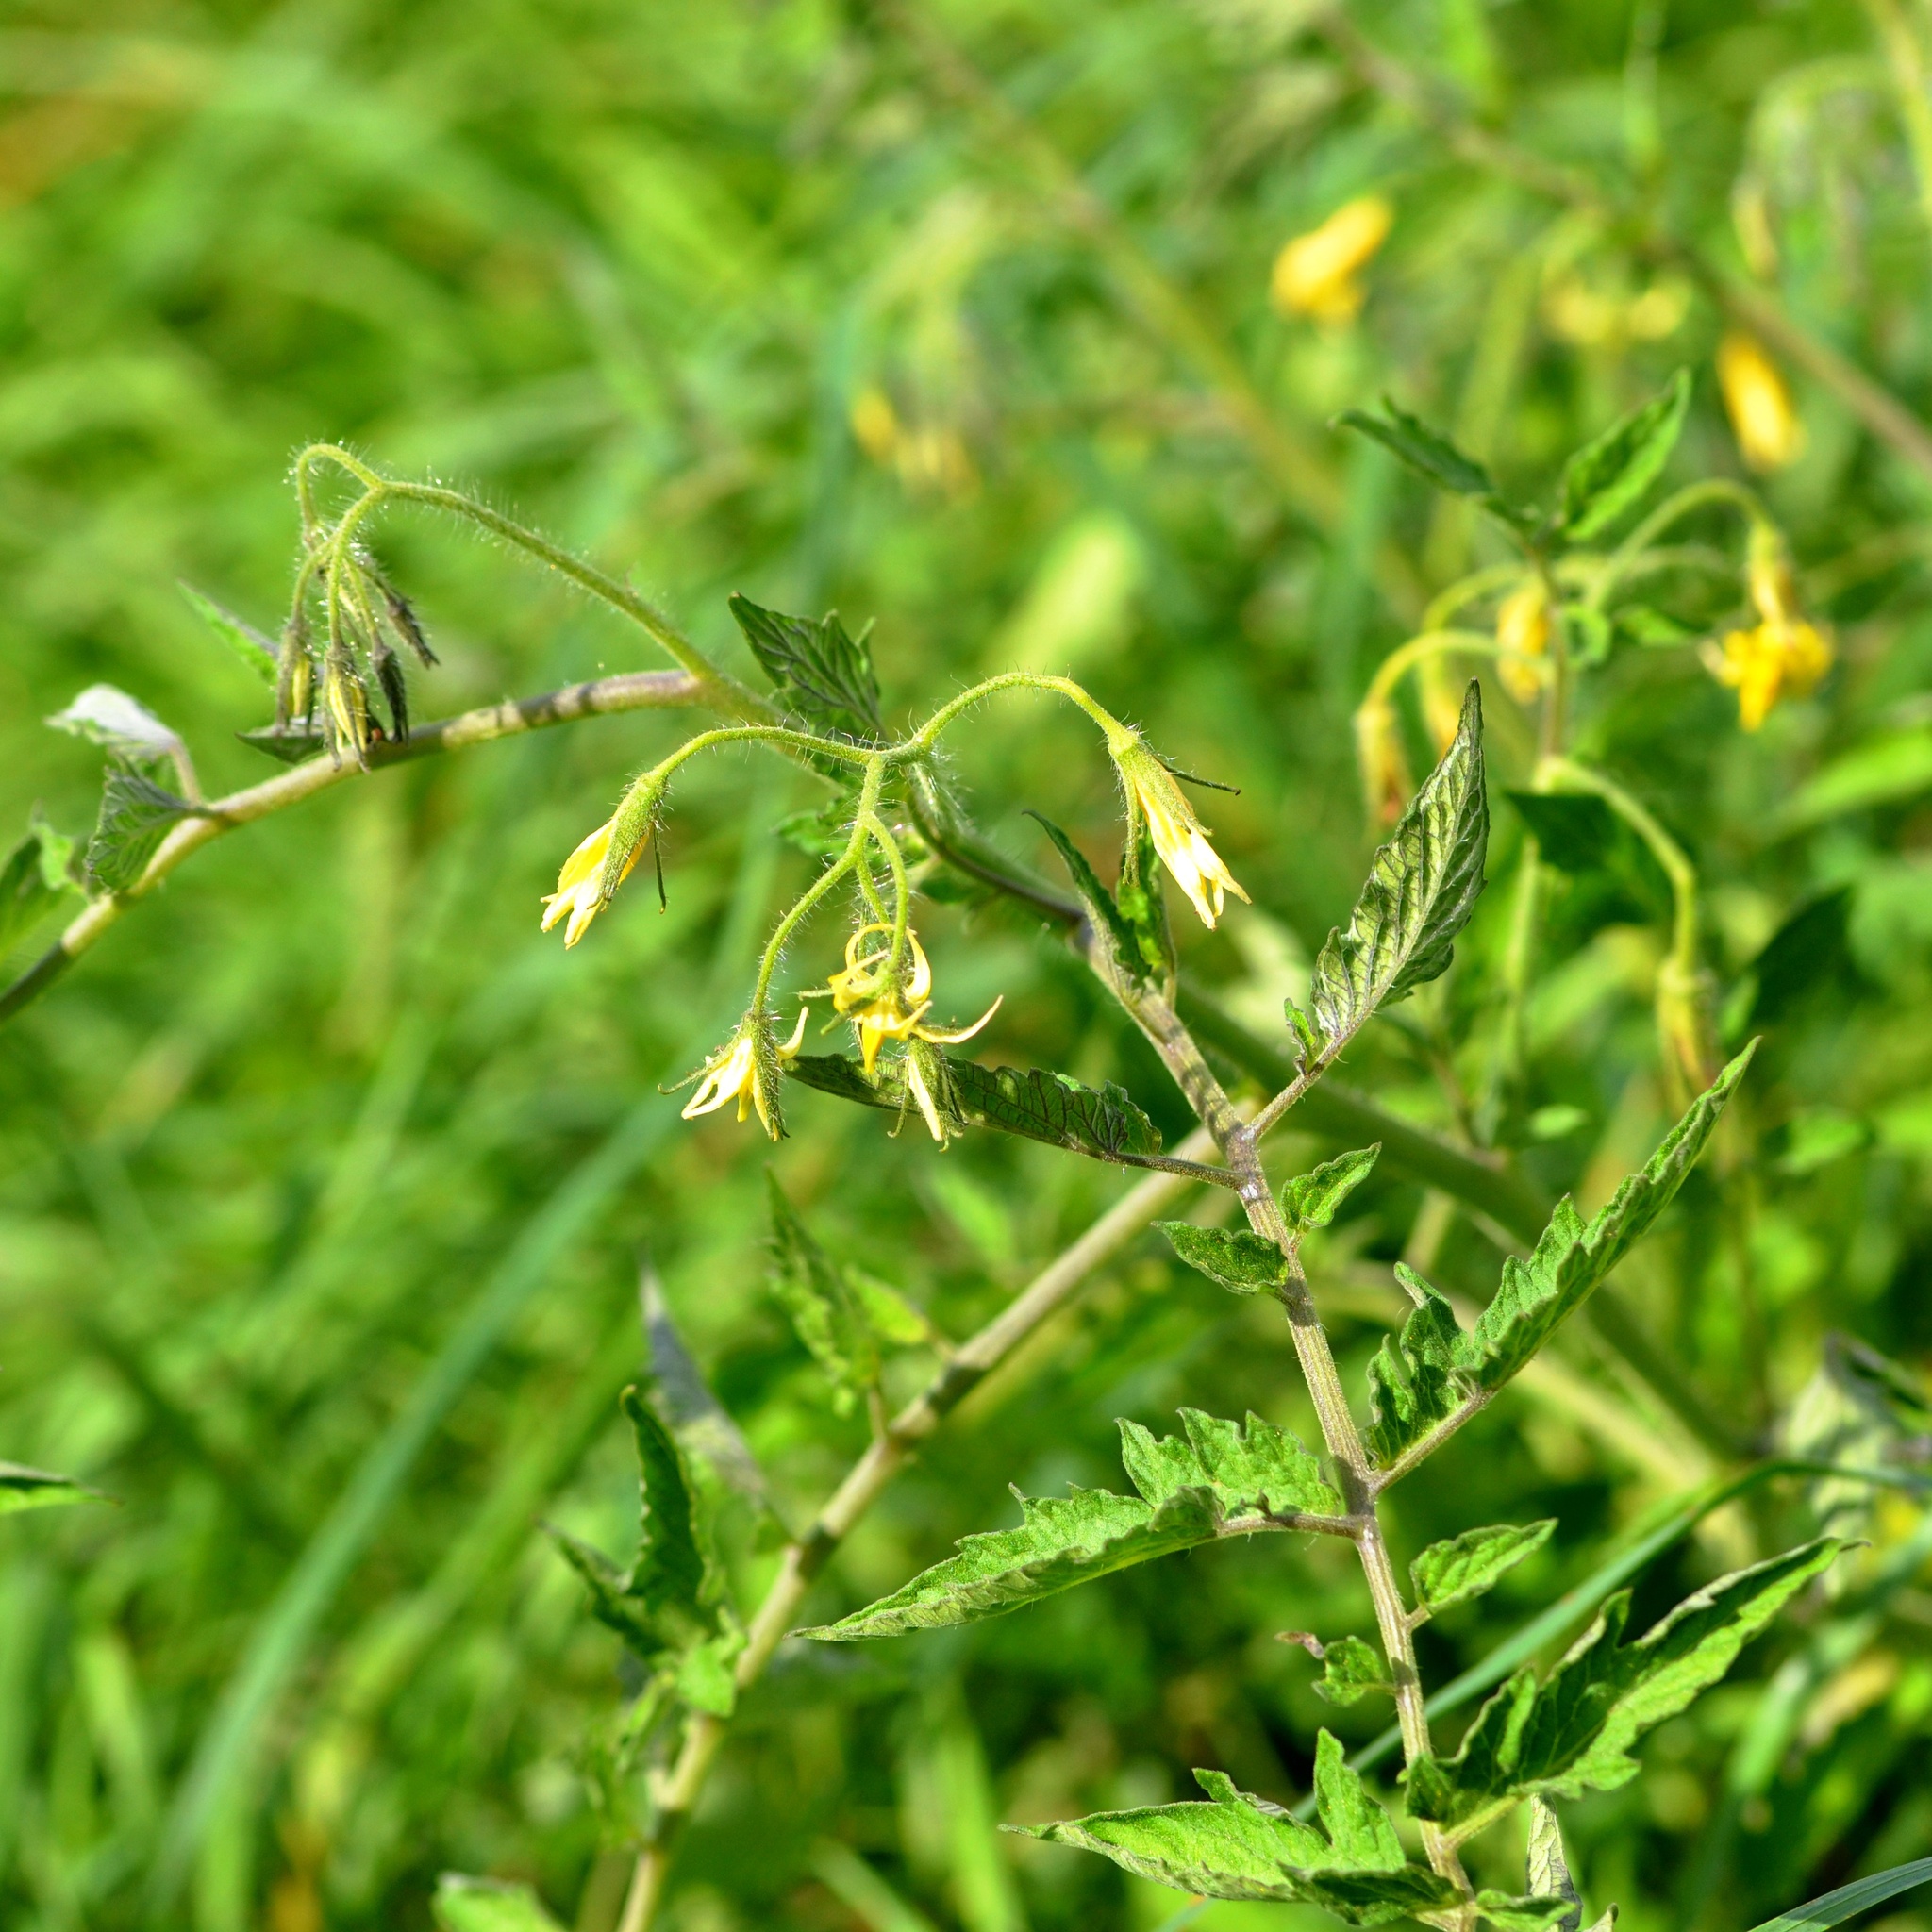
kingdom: Plantae
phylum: Tracheophyta
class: Magnoliopsida
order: Solanales
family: Solanaceae
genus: Solanum
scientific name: Solanum lycopersicum
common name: Garden tomato
